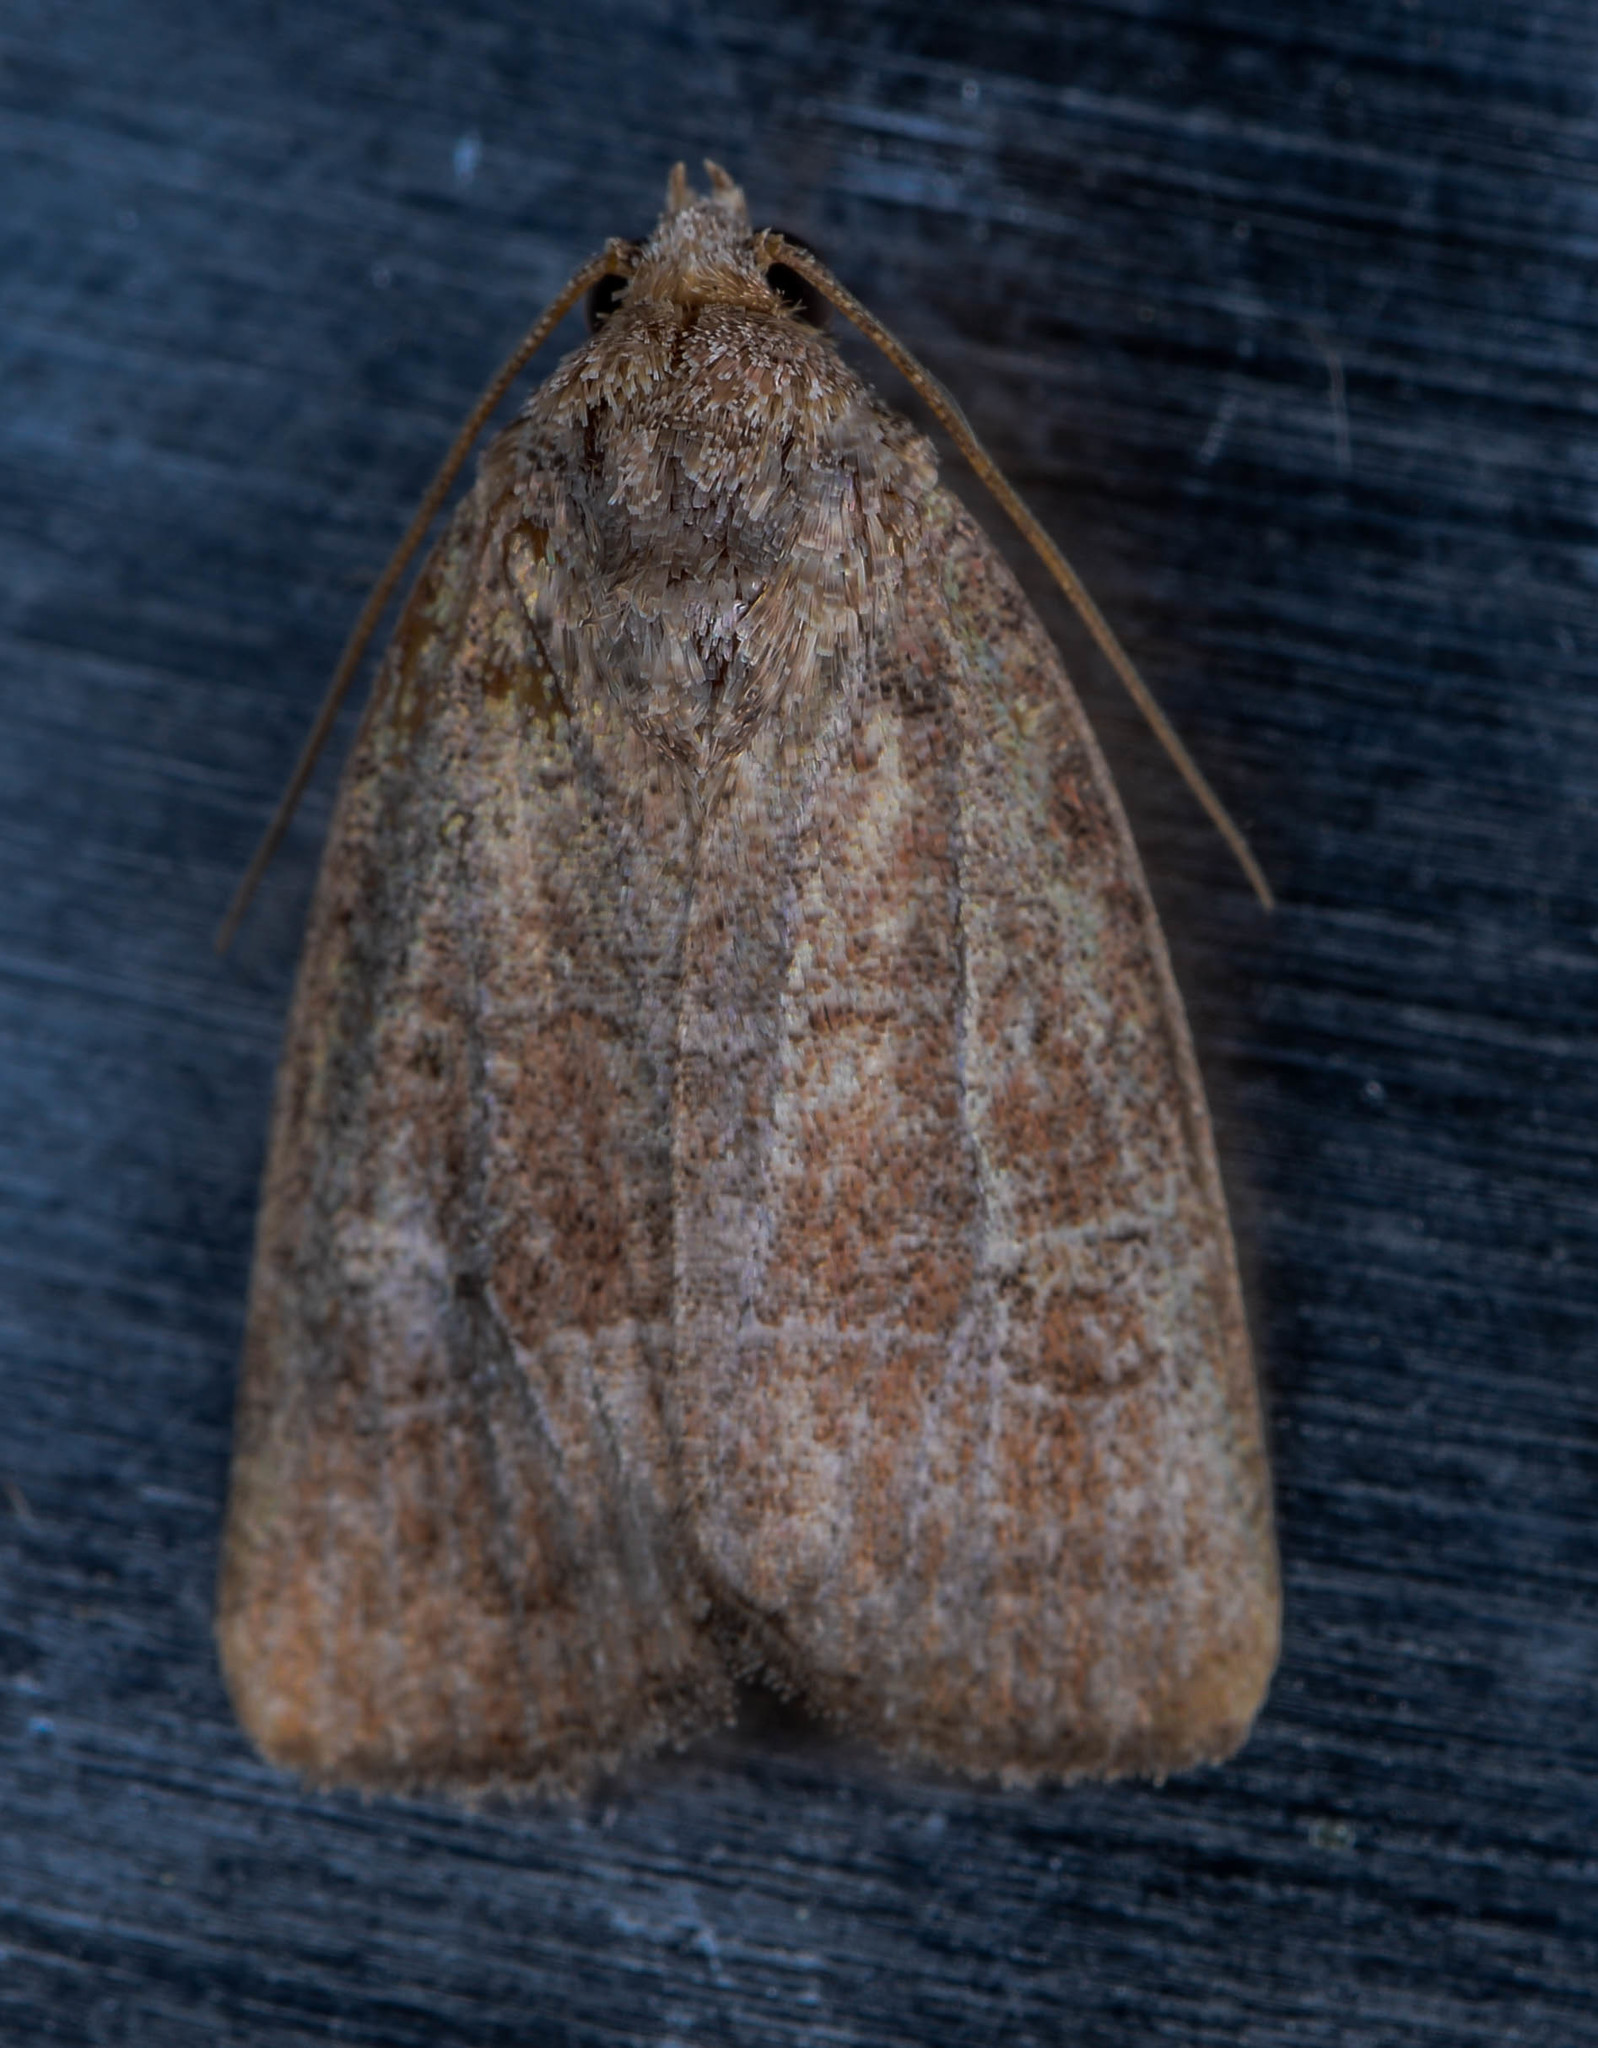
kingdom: Animalia
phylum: Arthropoda
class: Insecta
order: Lepidoptera
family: Noctuidae
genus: Elaphria
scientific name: Elaphria grata
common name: Grateful midget moth
